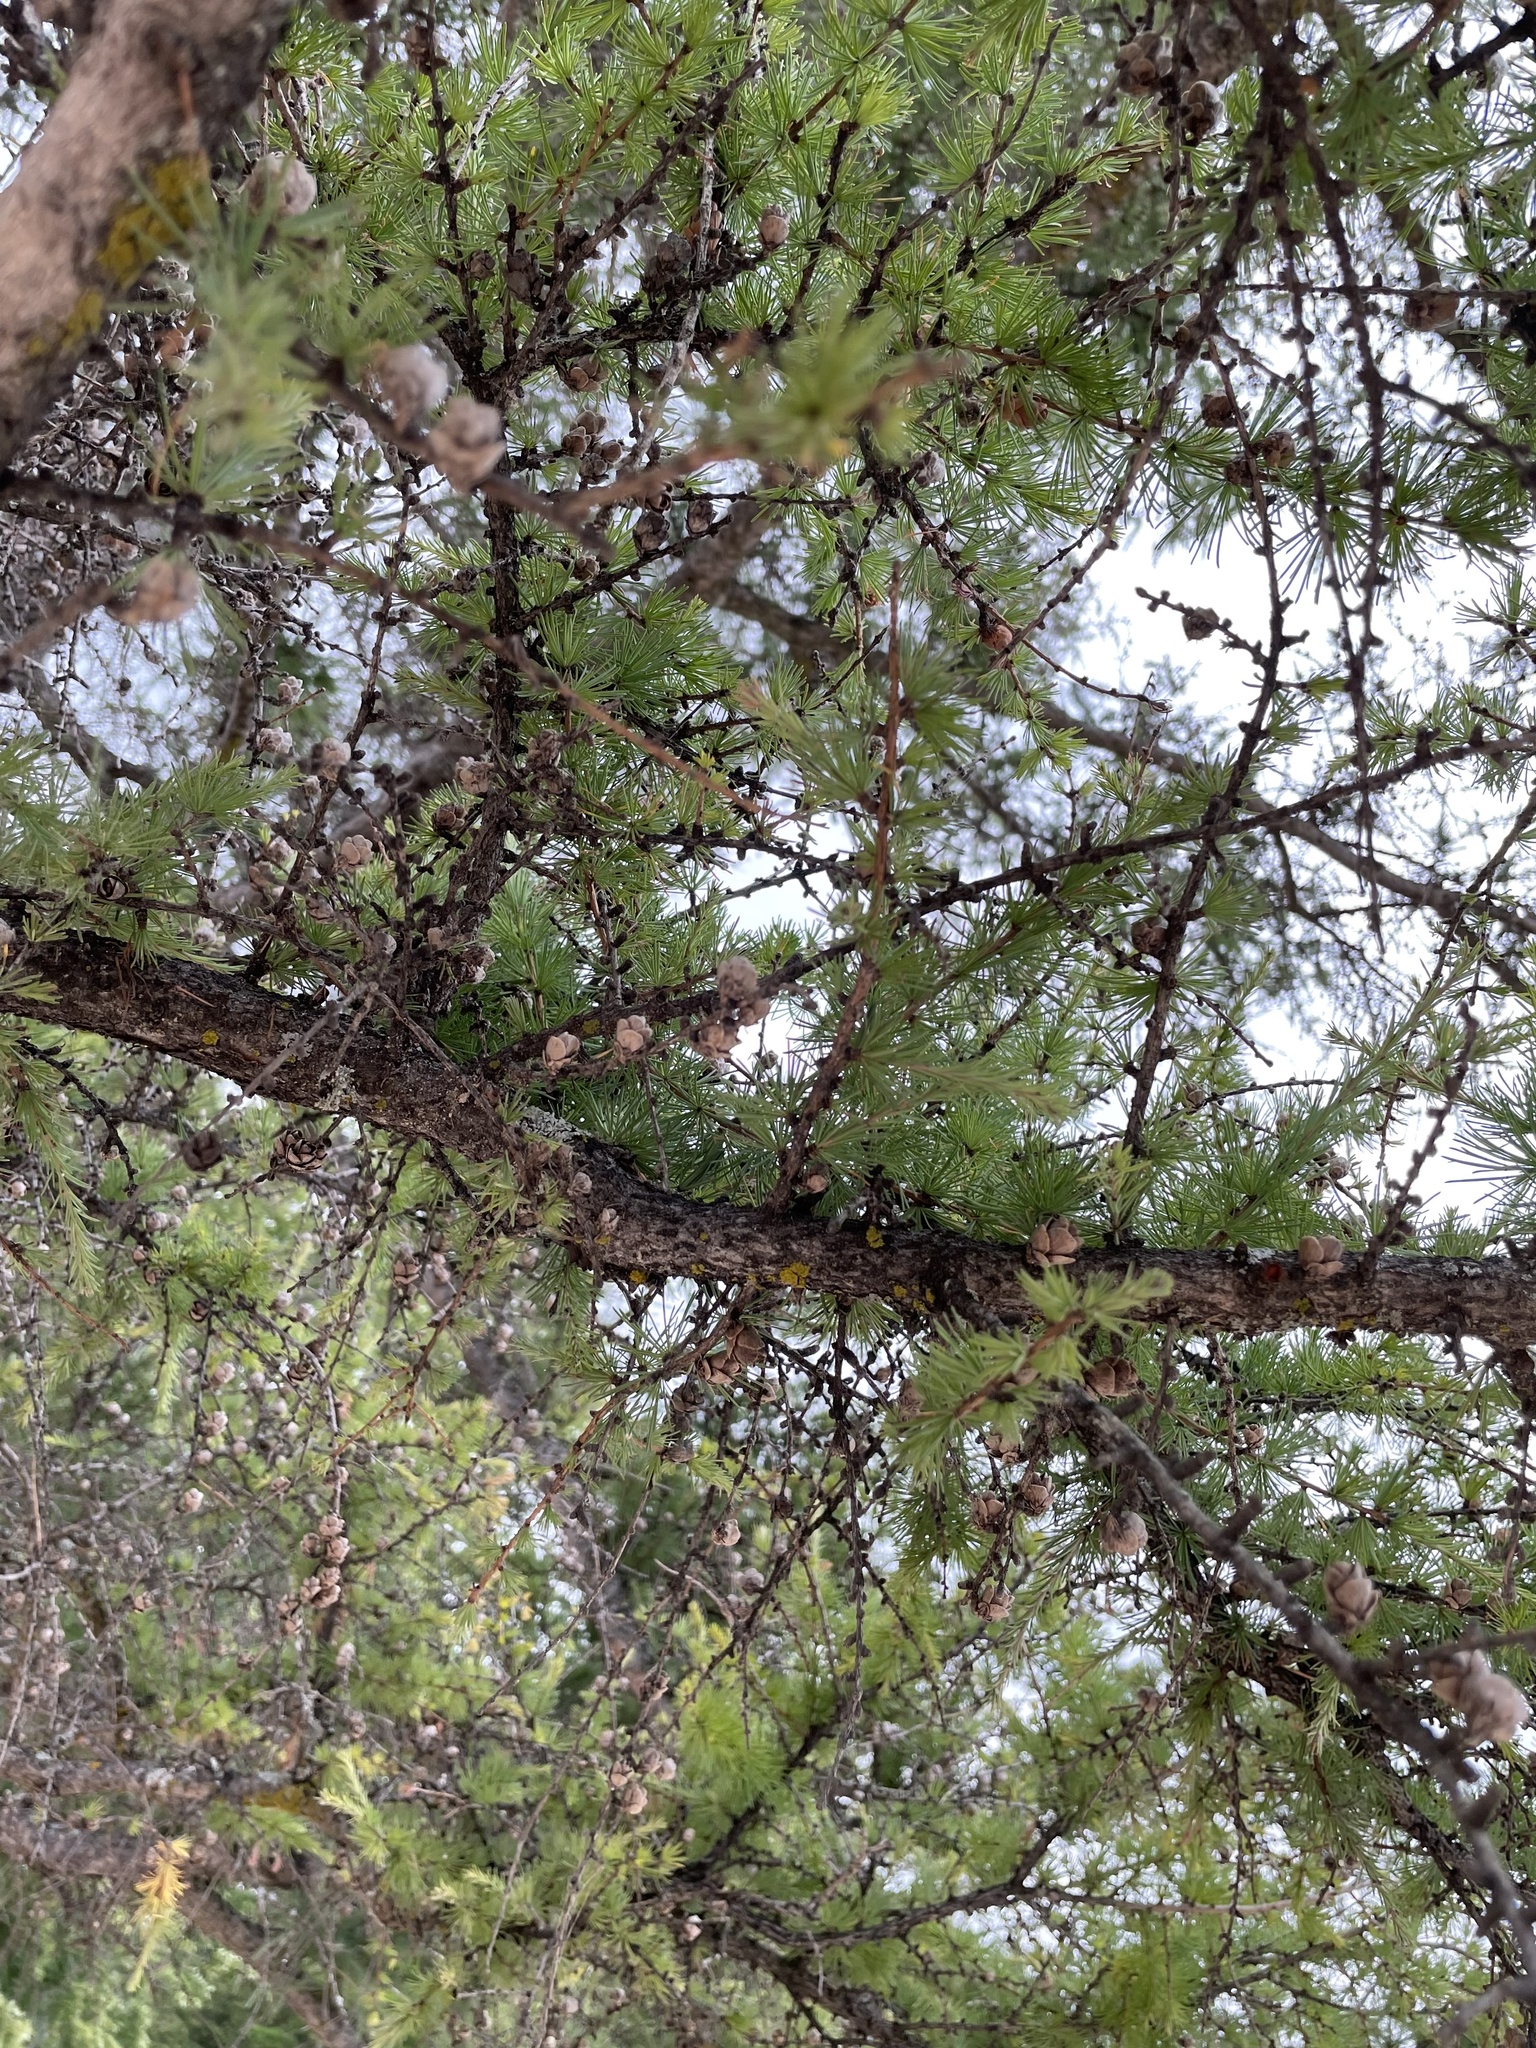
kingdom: Plantae
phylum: Tracheophyta
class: Pinopsida
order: Pinales
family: Pinaceae
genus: Larix
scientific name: Larix laricina
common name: American larch
